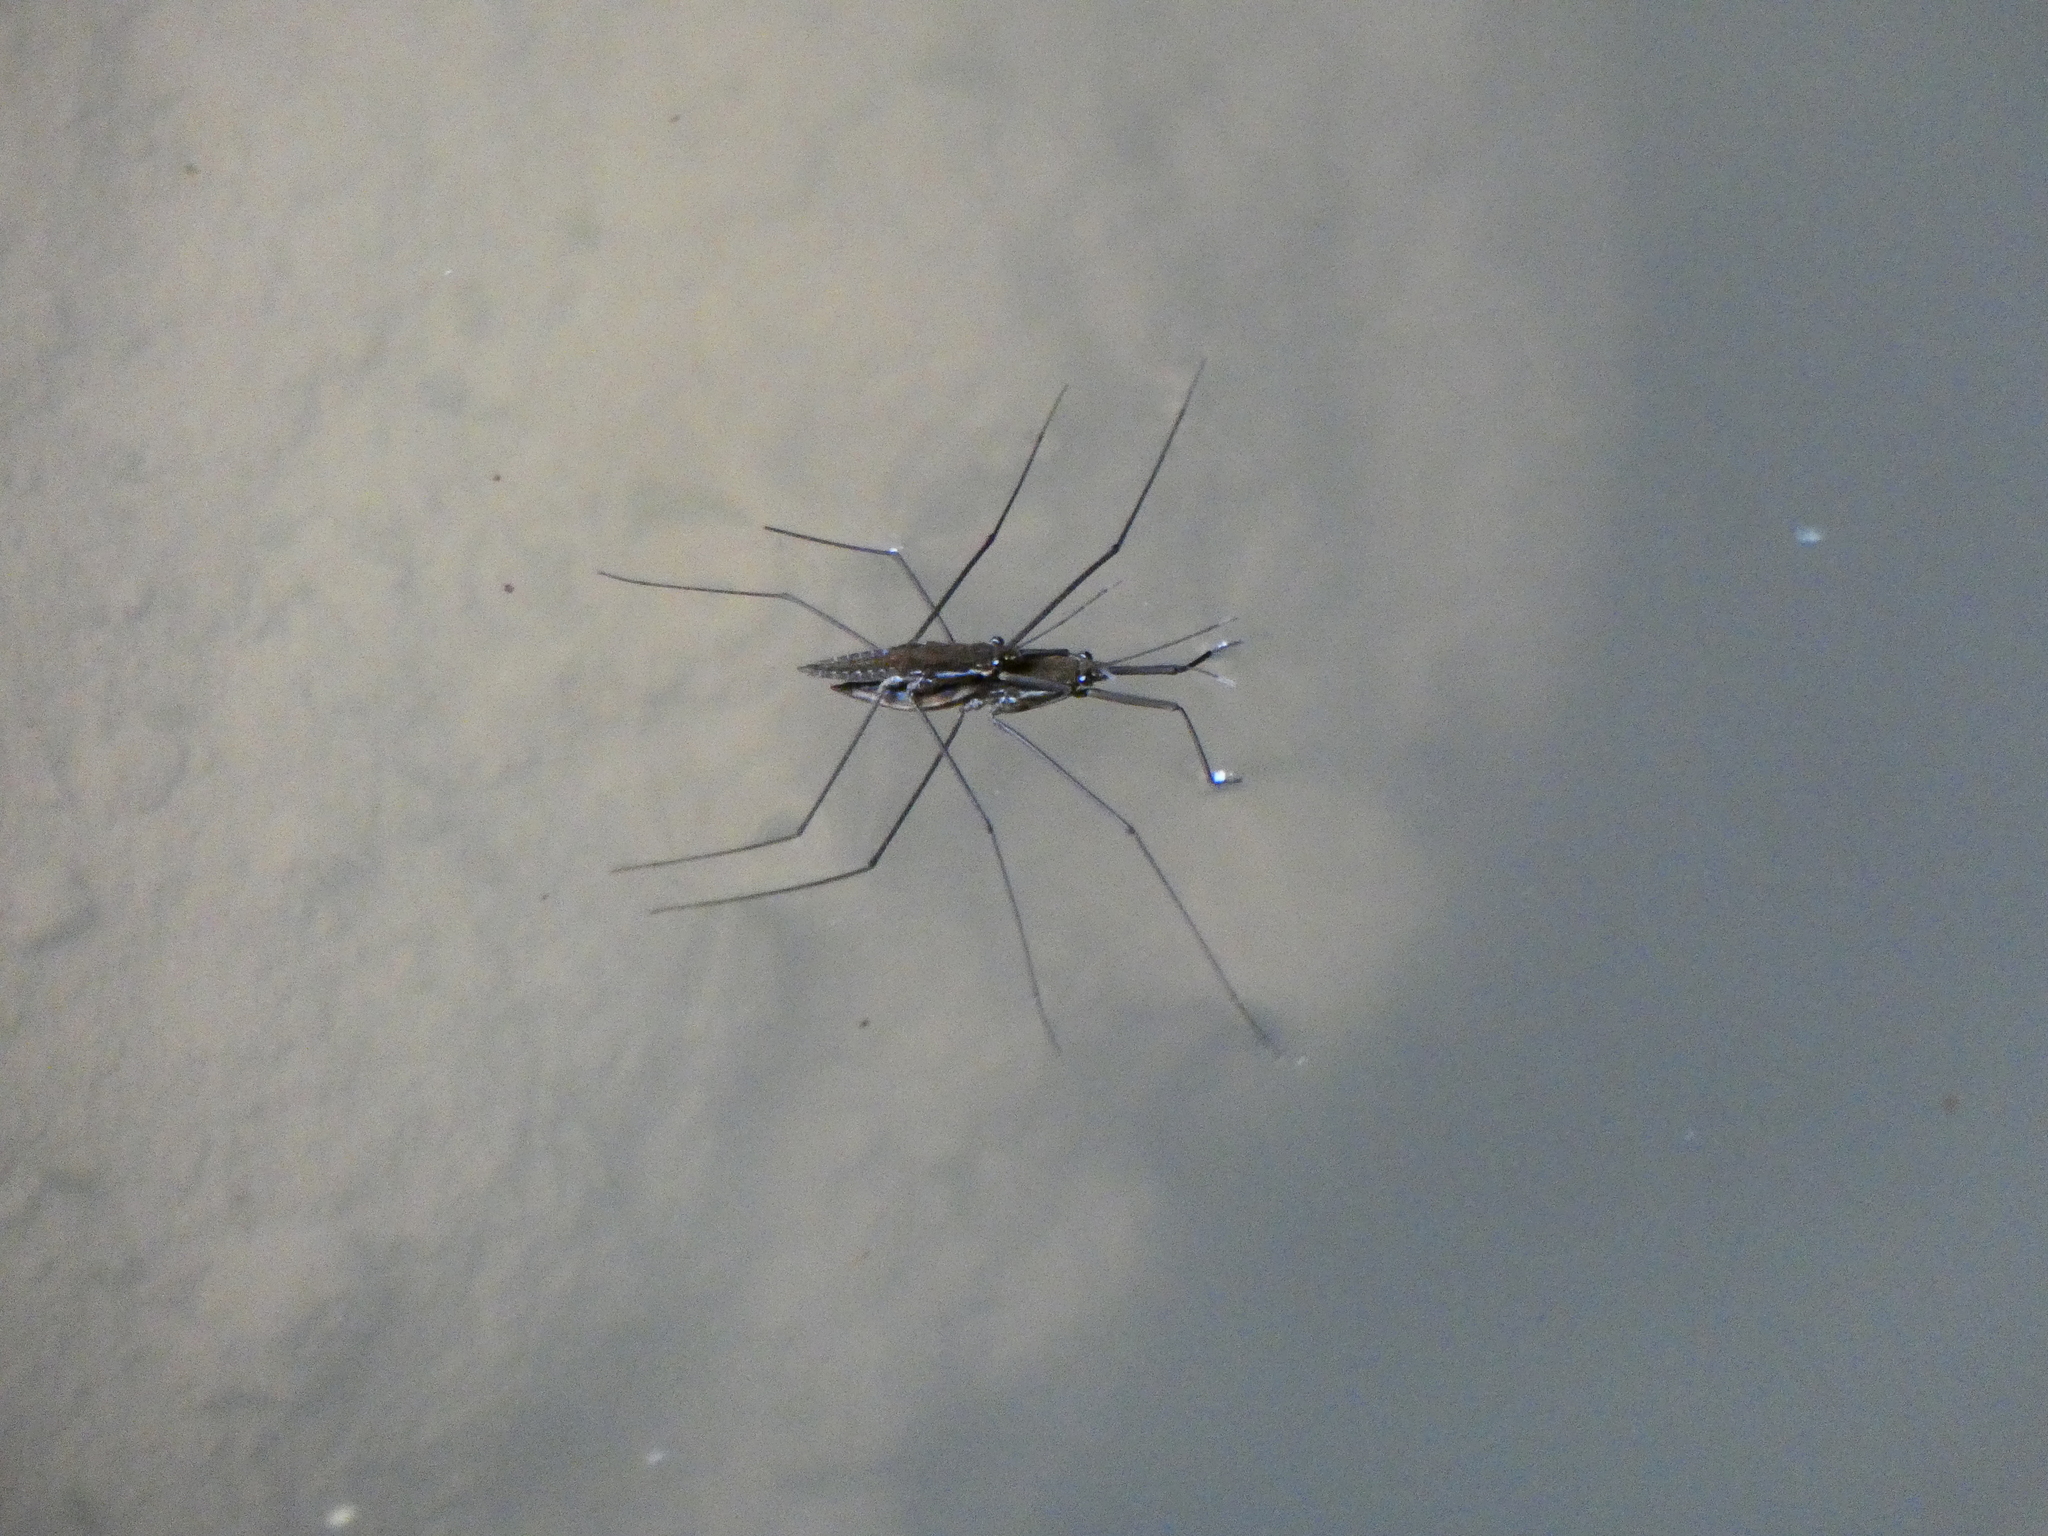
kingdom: Animalia
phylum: Arthropoda
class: Insecta
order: Hemiptera
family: Gerridae
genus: Aquarius
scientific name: Aquarius chilensis
